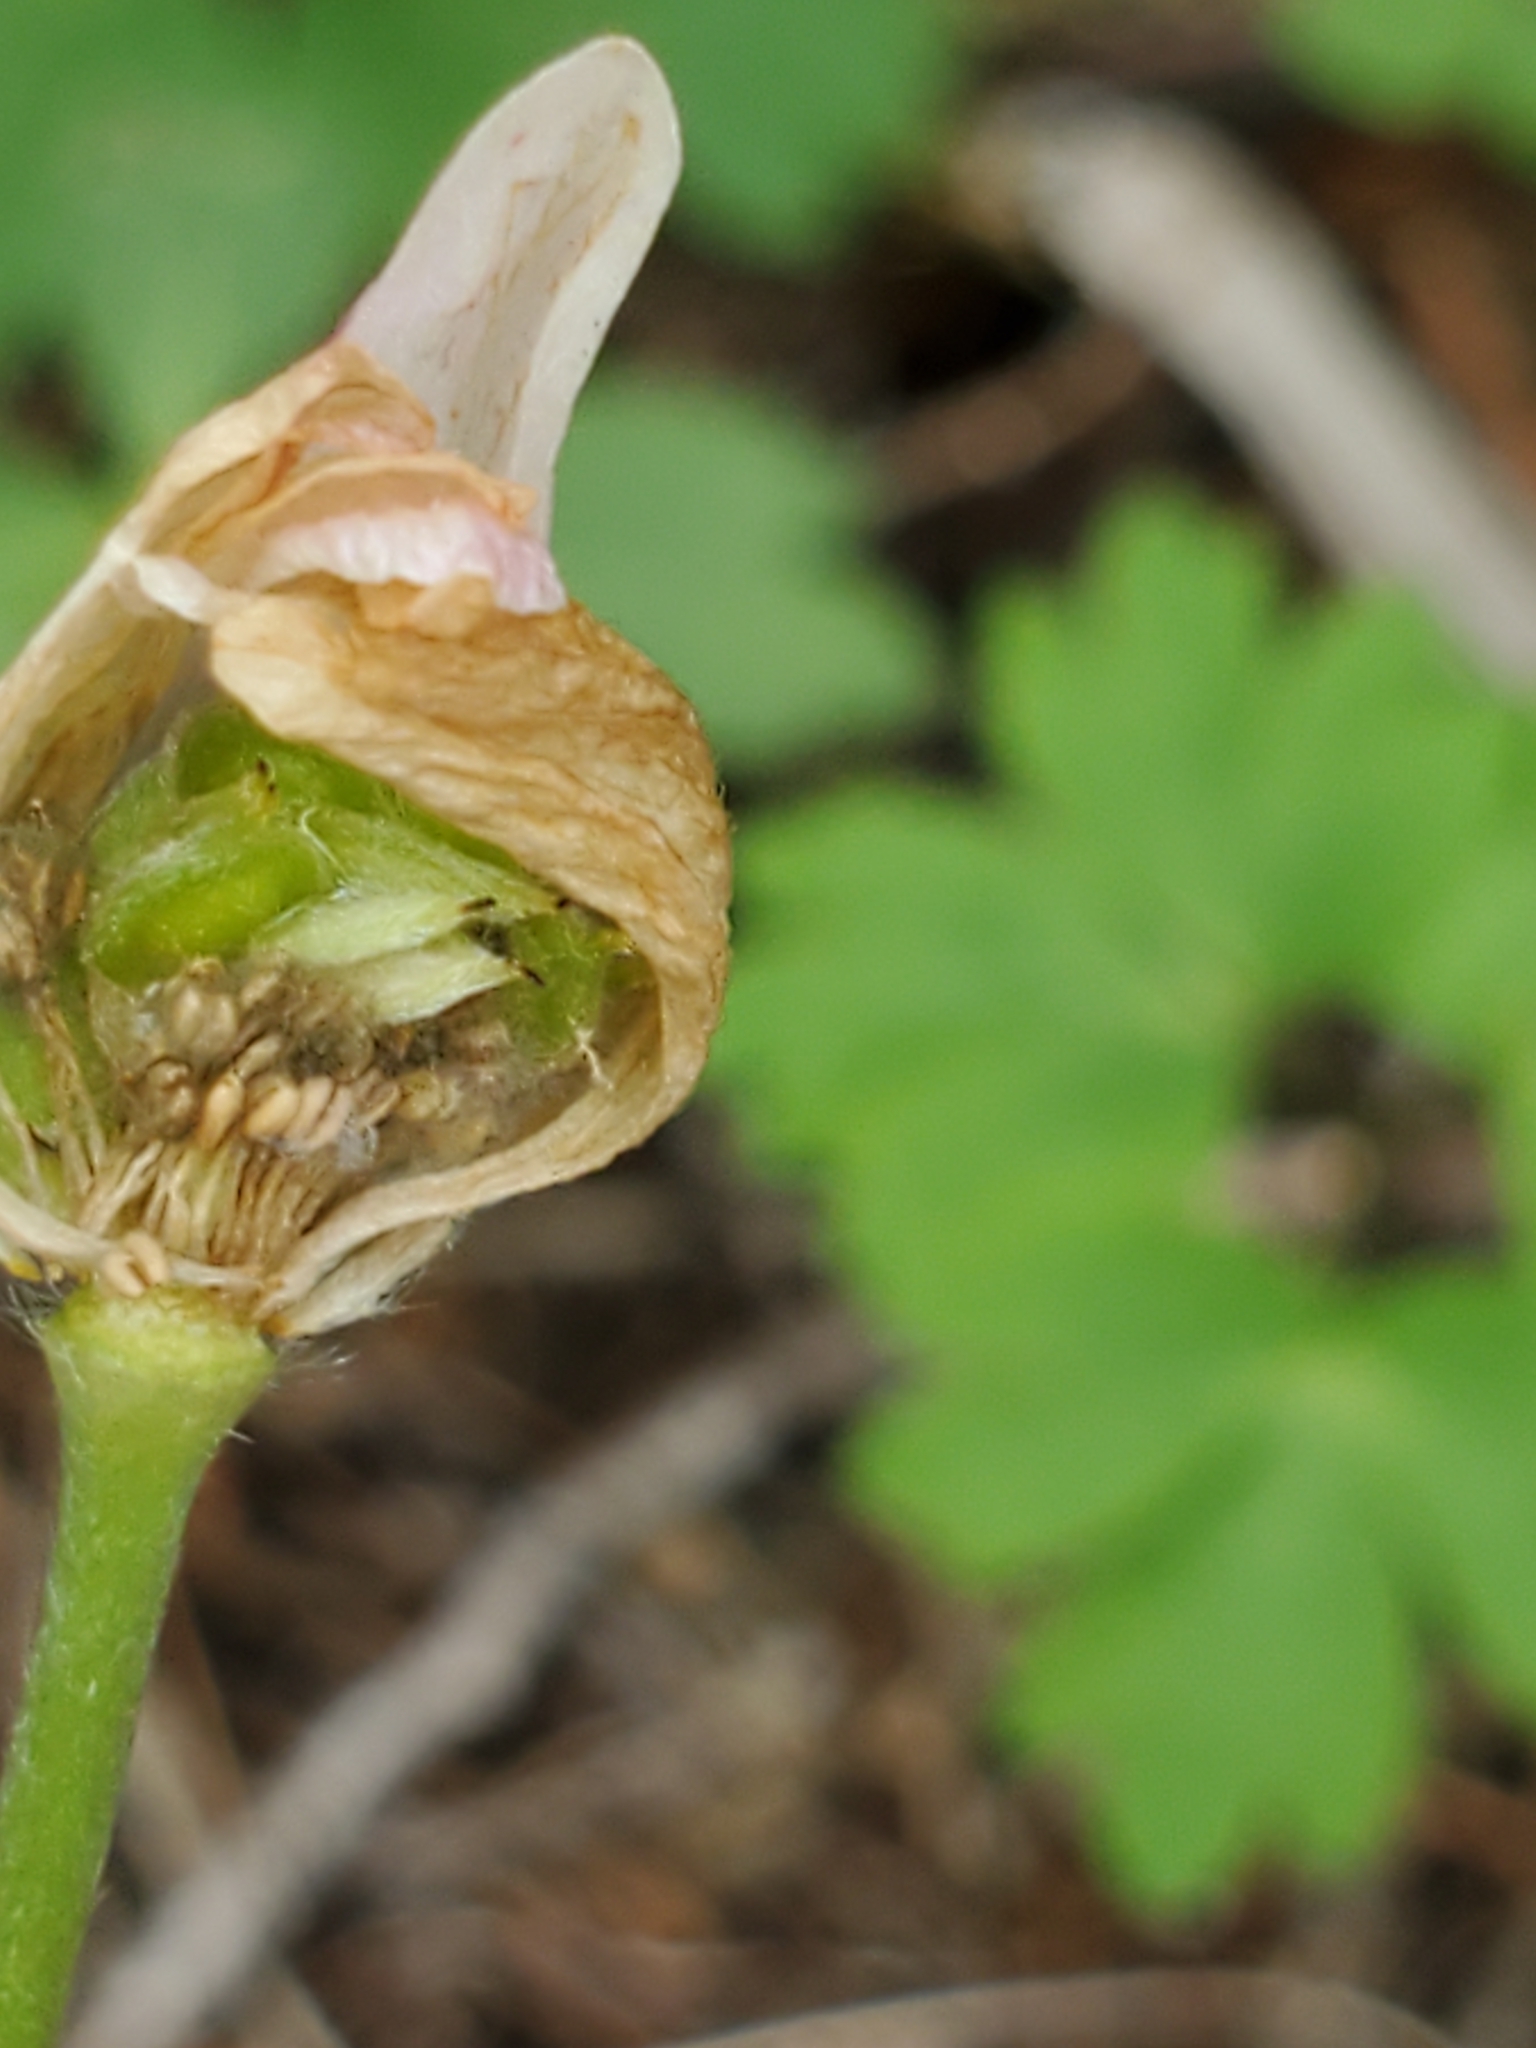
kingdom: Plantae
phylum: Tracheophyta
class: Magnoliopsida
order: Ranunculales
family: Ranunculaceae
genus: Anemone
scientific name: Anemone edwardsiana
